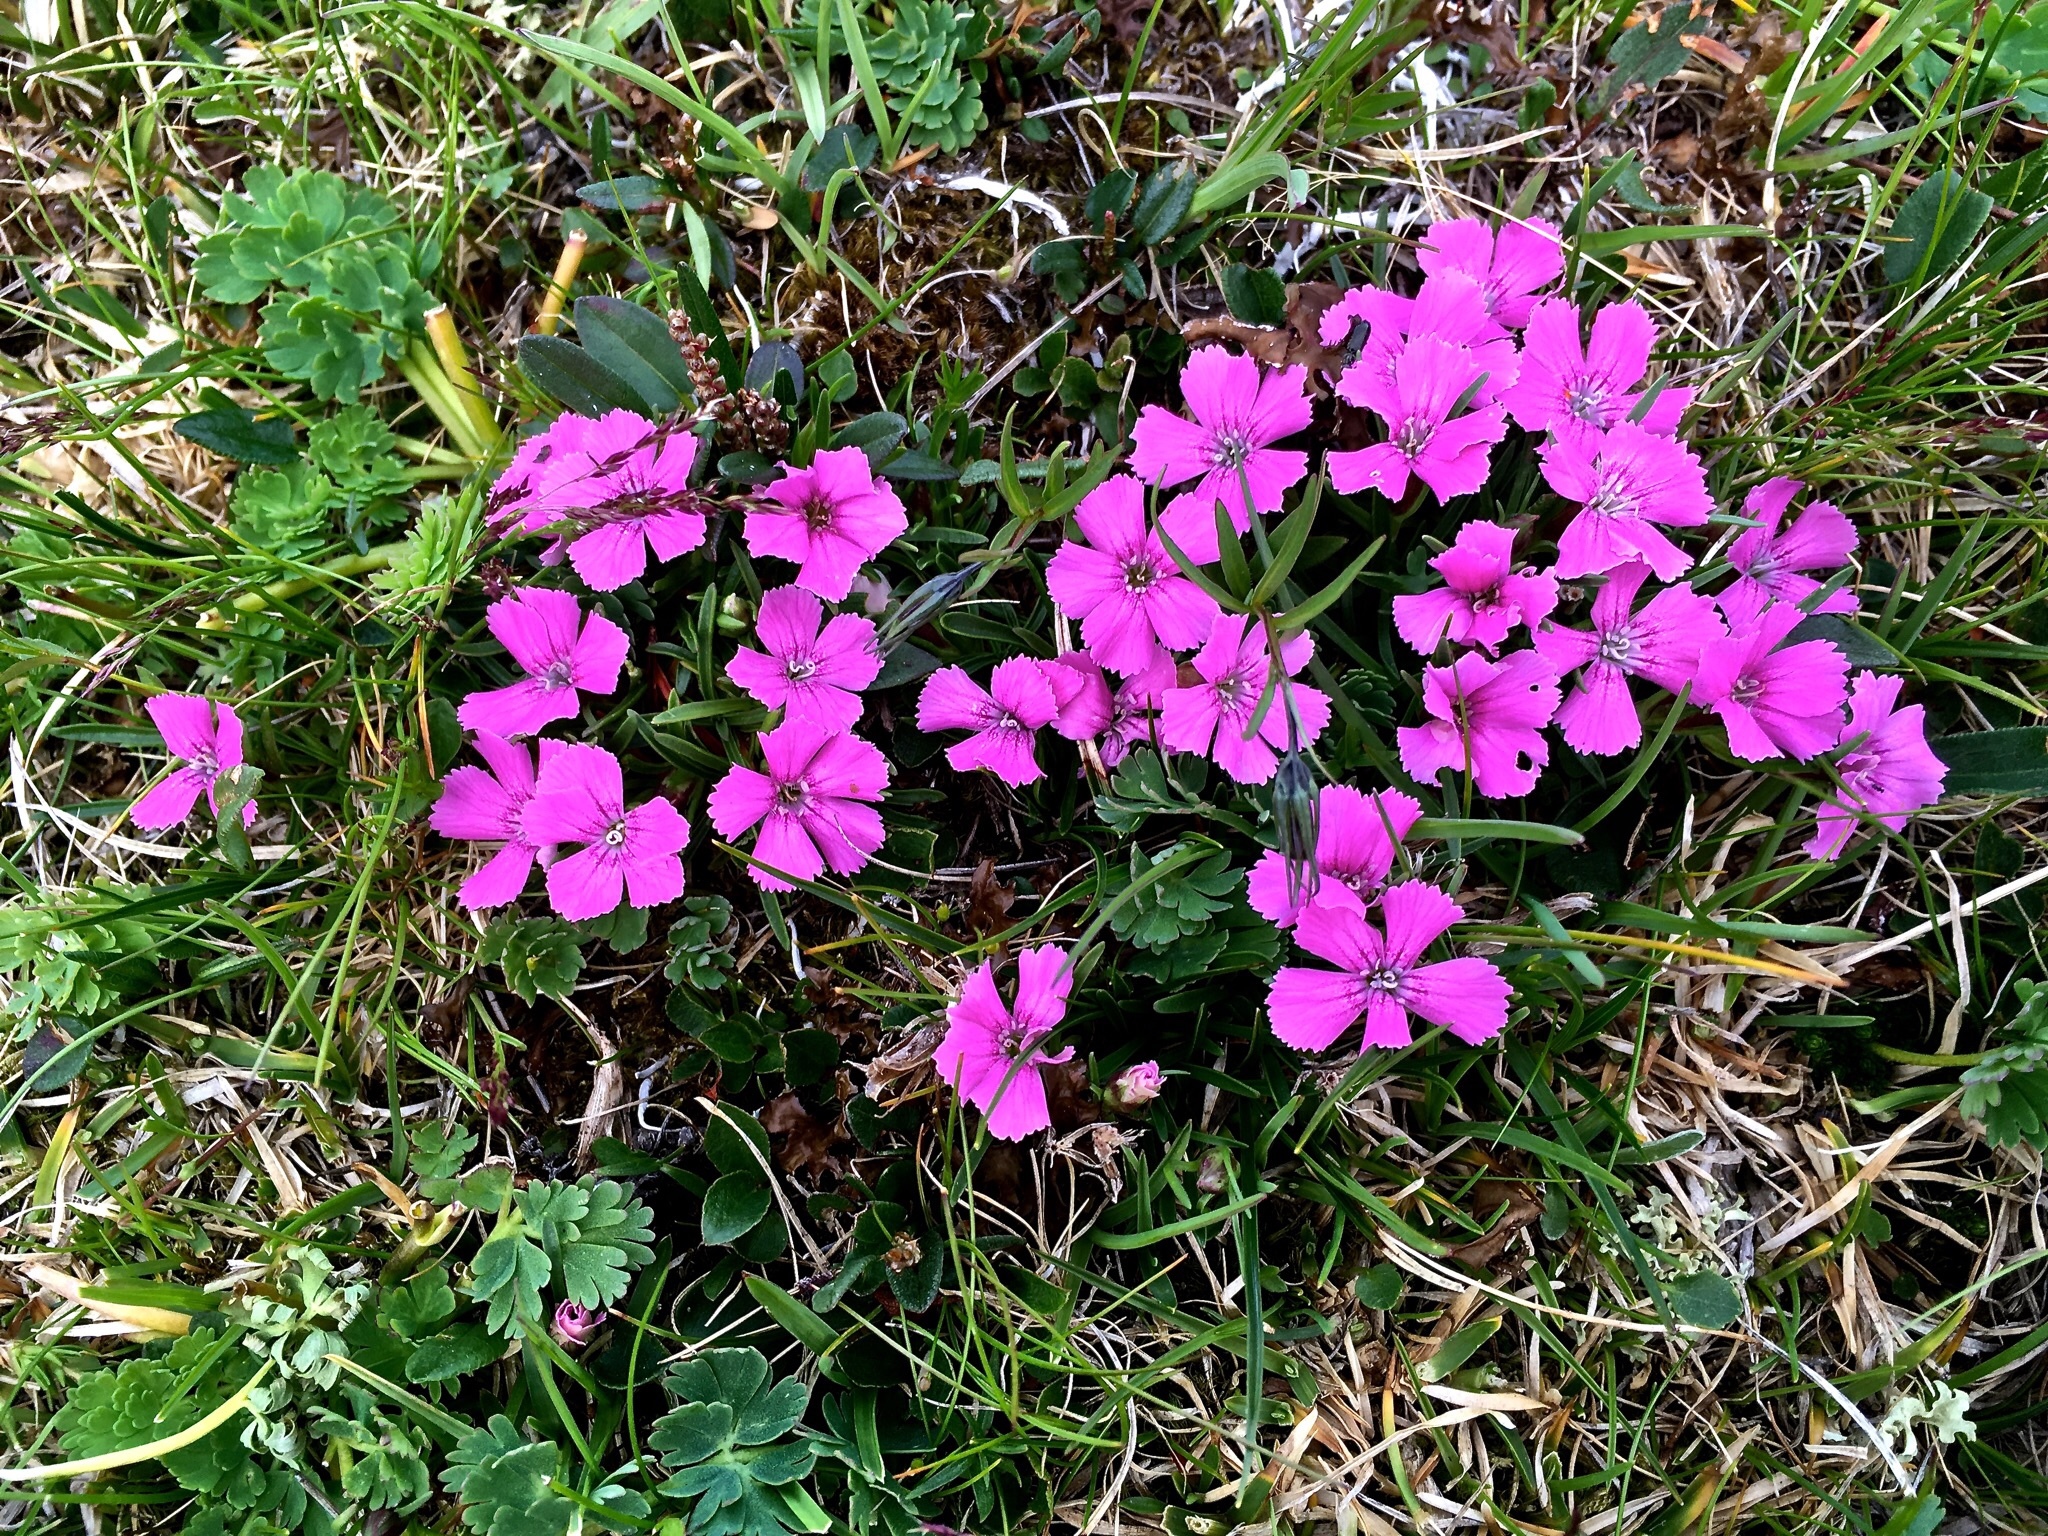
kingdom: Plantae
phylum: Tracheophyta
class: Magnoliopsida
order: Caryophyllales
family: Caryophyllaceae
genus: Dianthus
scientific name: Dianthus glacialis
